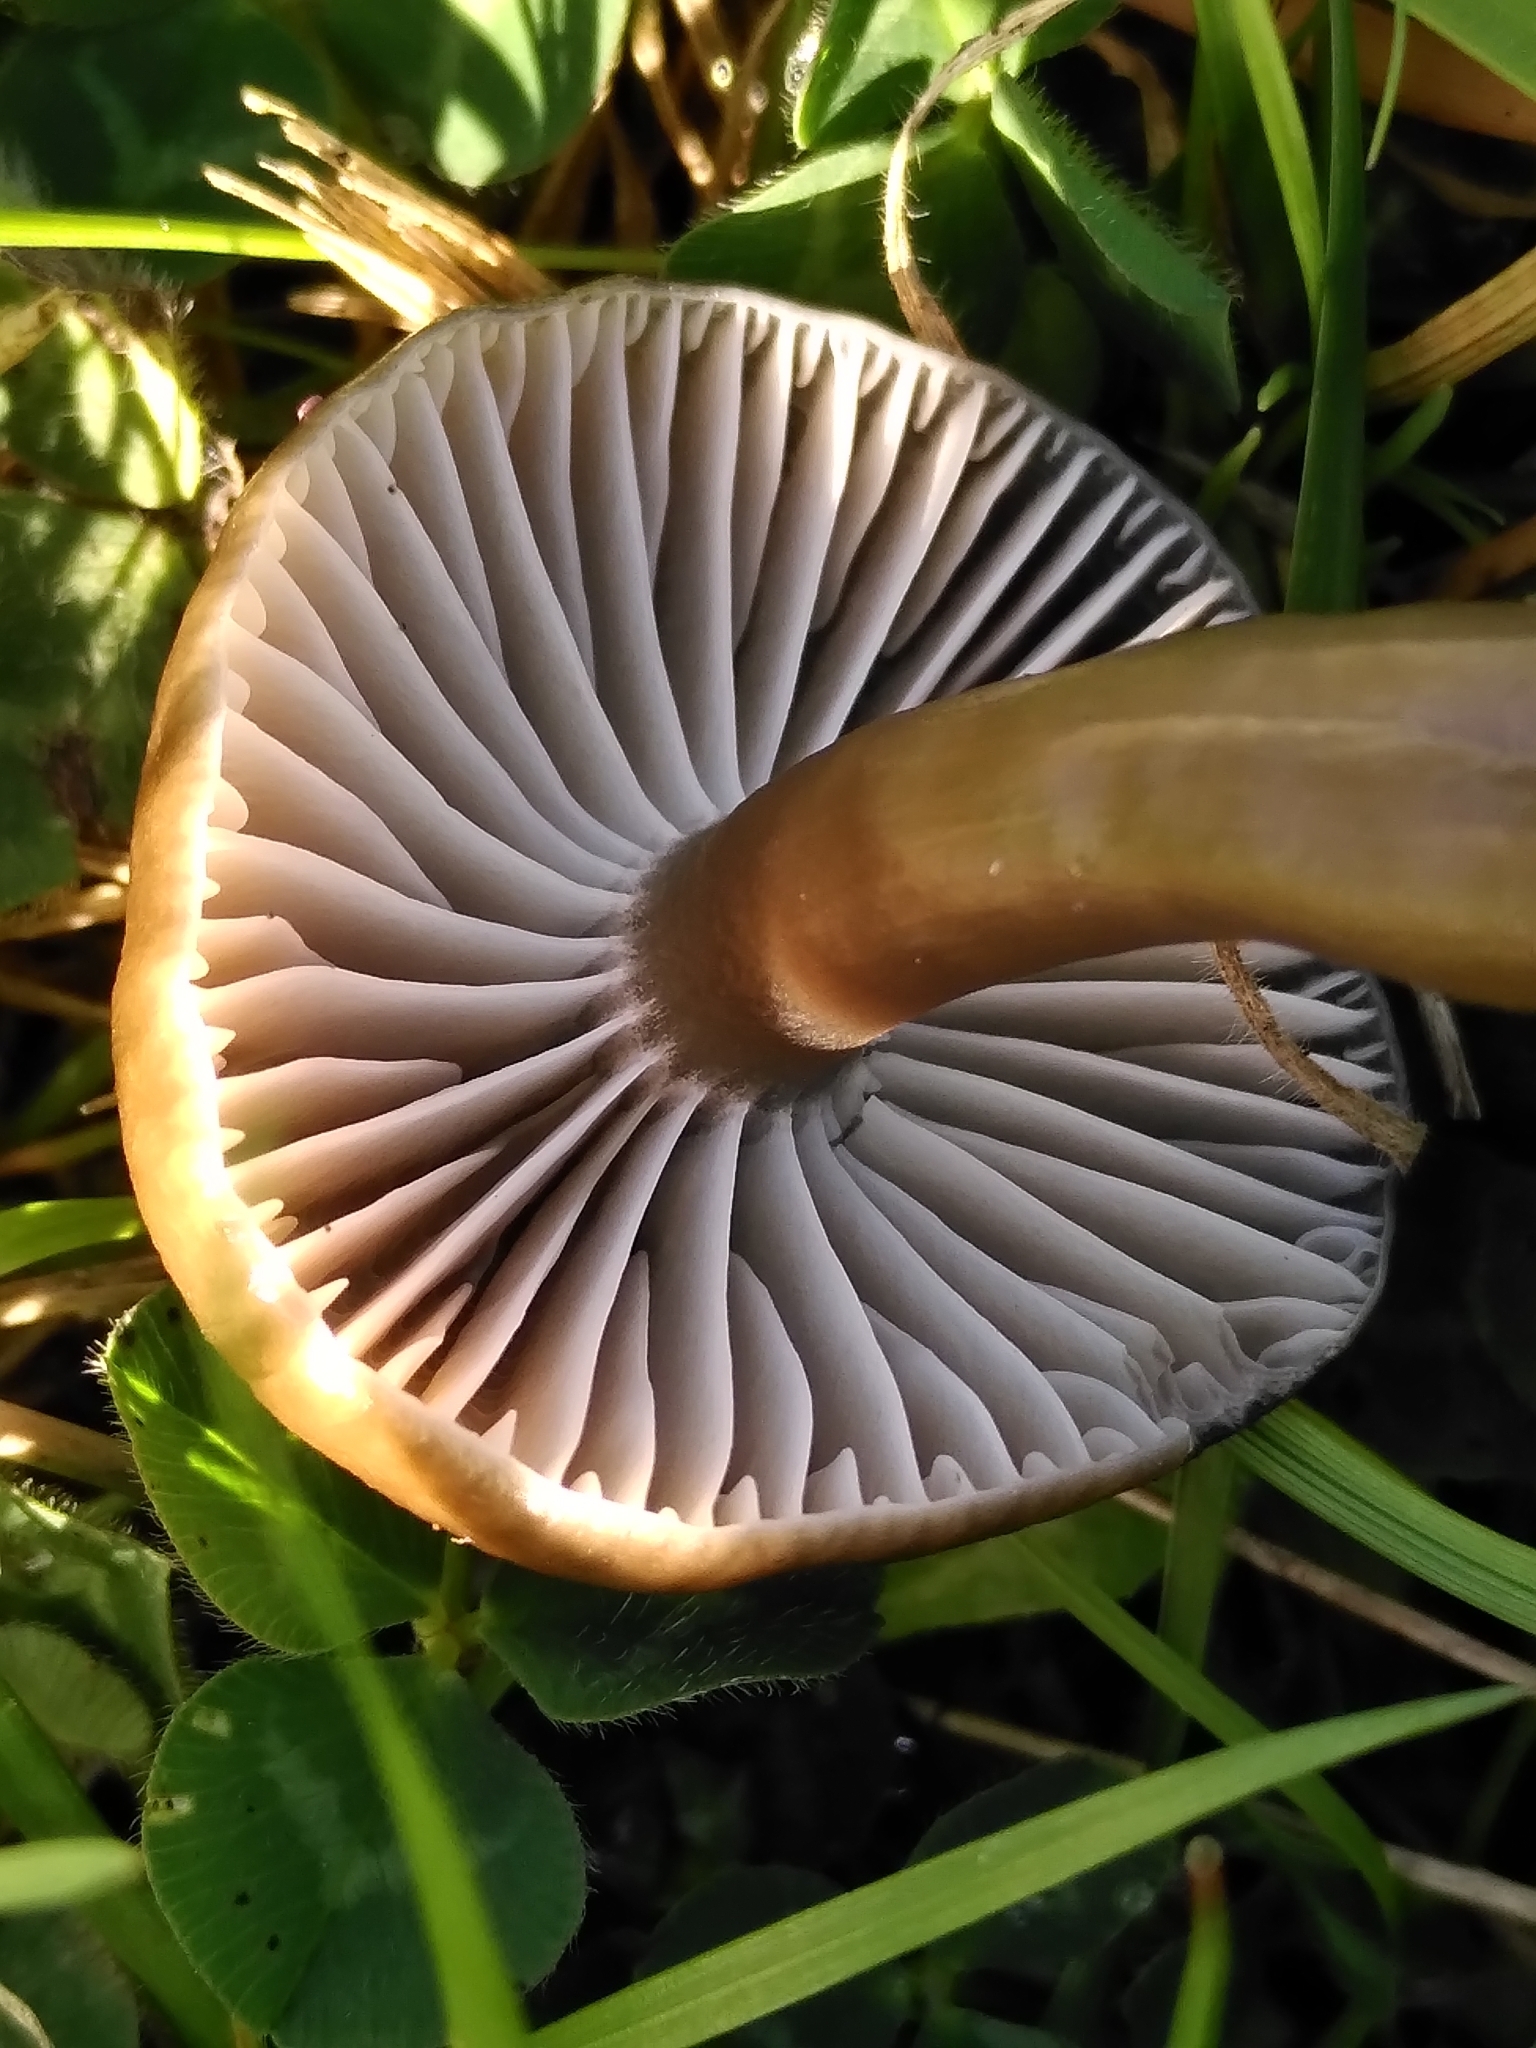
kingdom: Fungi
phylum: Basidiomycota
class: Agaricomycetes
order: Agaricales
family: Hygrophoraceae
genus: Gliophorus
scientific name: Gliophorus irrigatus
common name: Slimy waxcap
